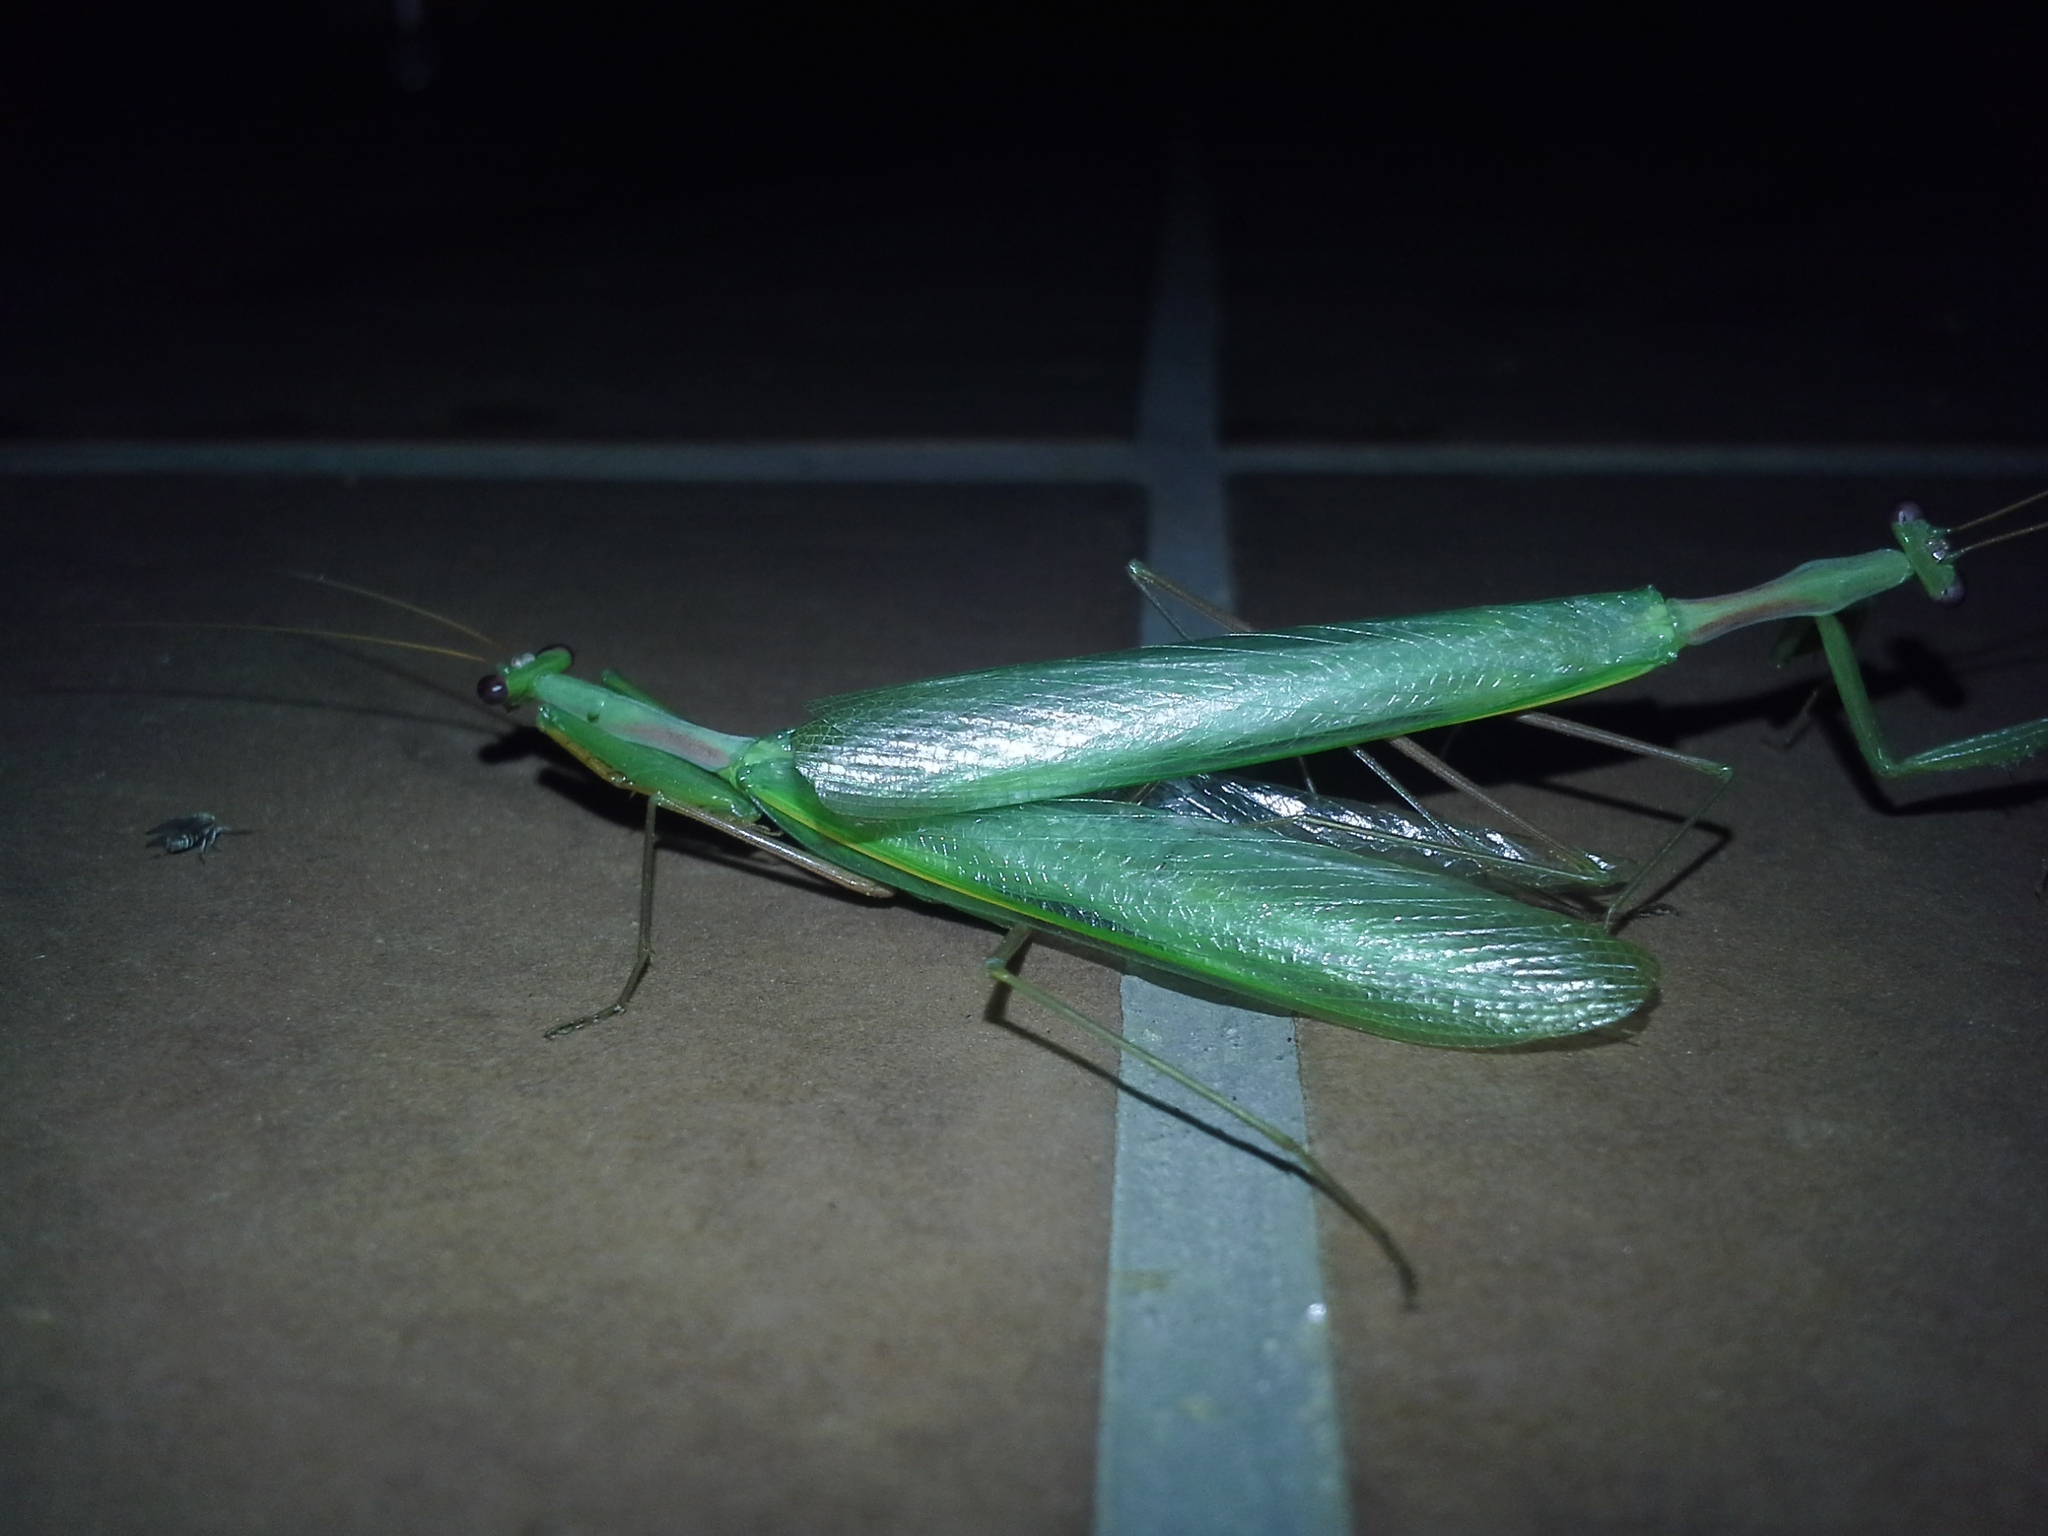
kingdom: Animalia
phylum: Arthropoda
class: Insecta
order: Mantodea
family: Miomantidae
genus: Miomantis
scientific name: Miomantis caffra
